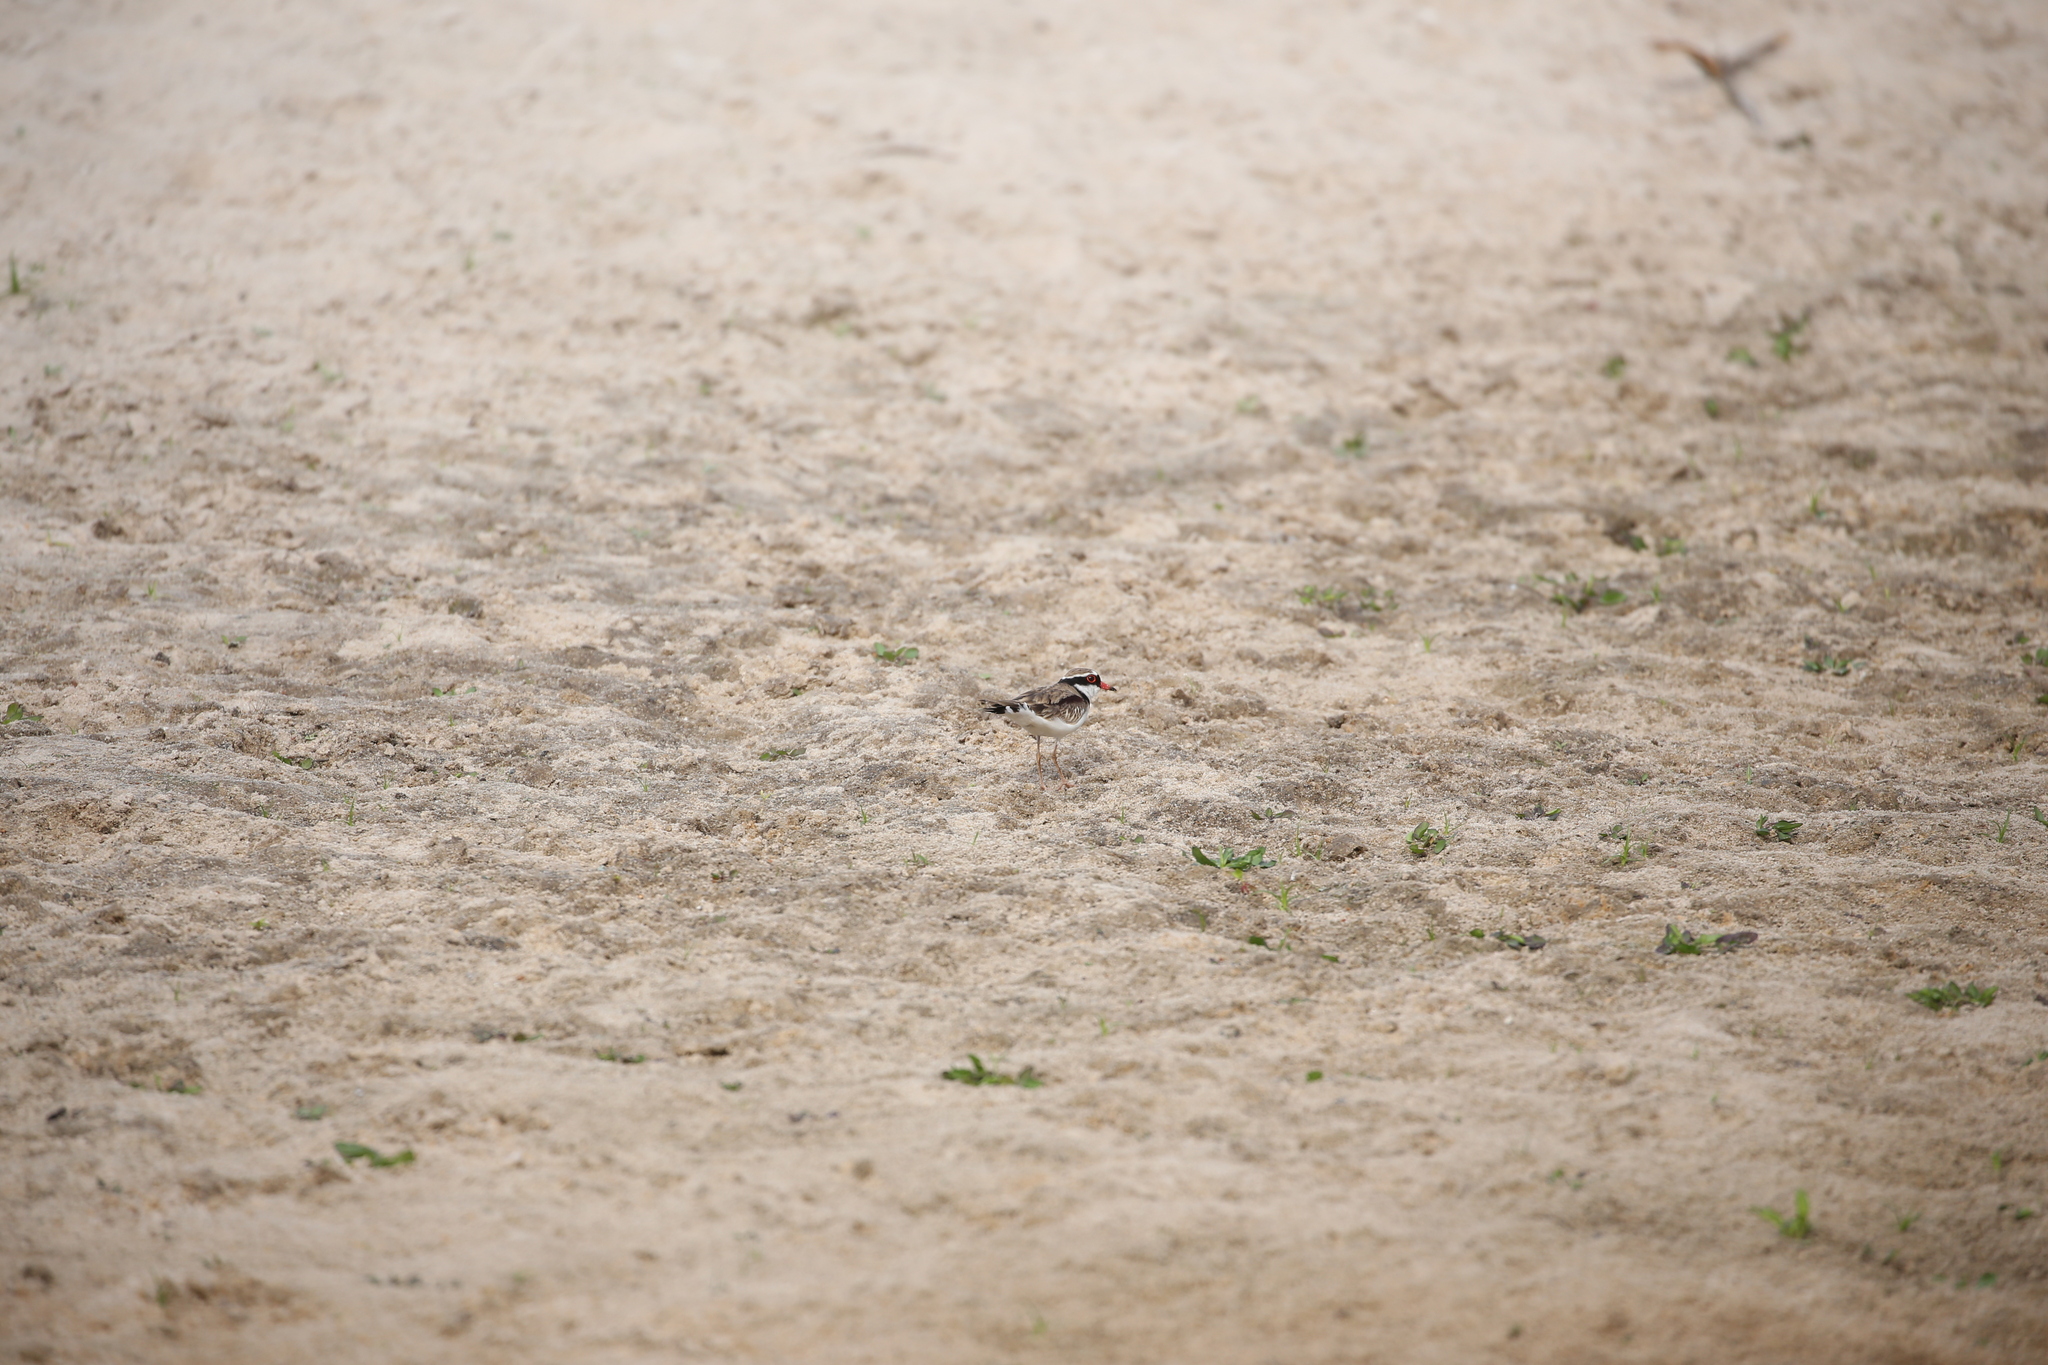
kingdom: Animalia
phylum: Chordata
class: Aves
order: Charadriiformes
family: Charadriidae
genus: Elseyornis
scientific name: Elseyornis melanops
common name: Black-fronted dotterel
